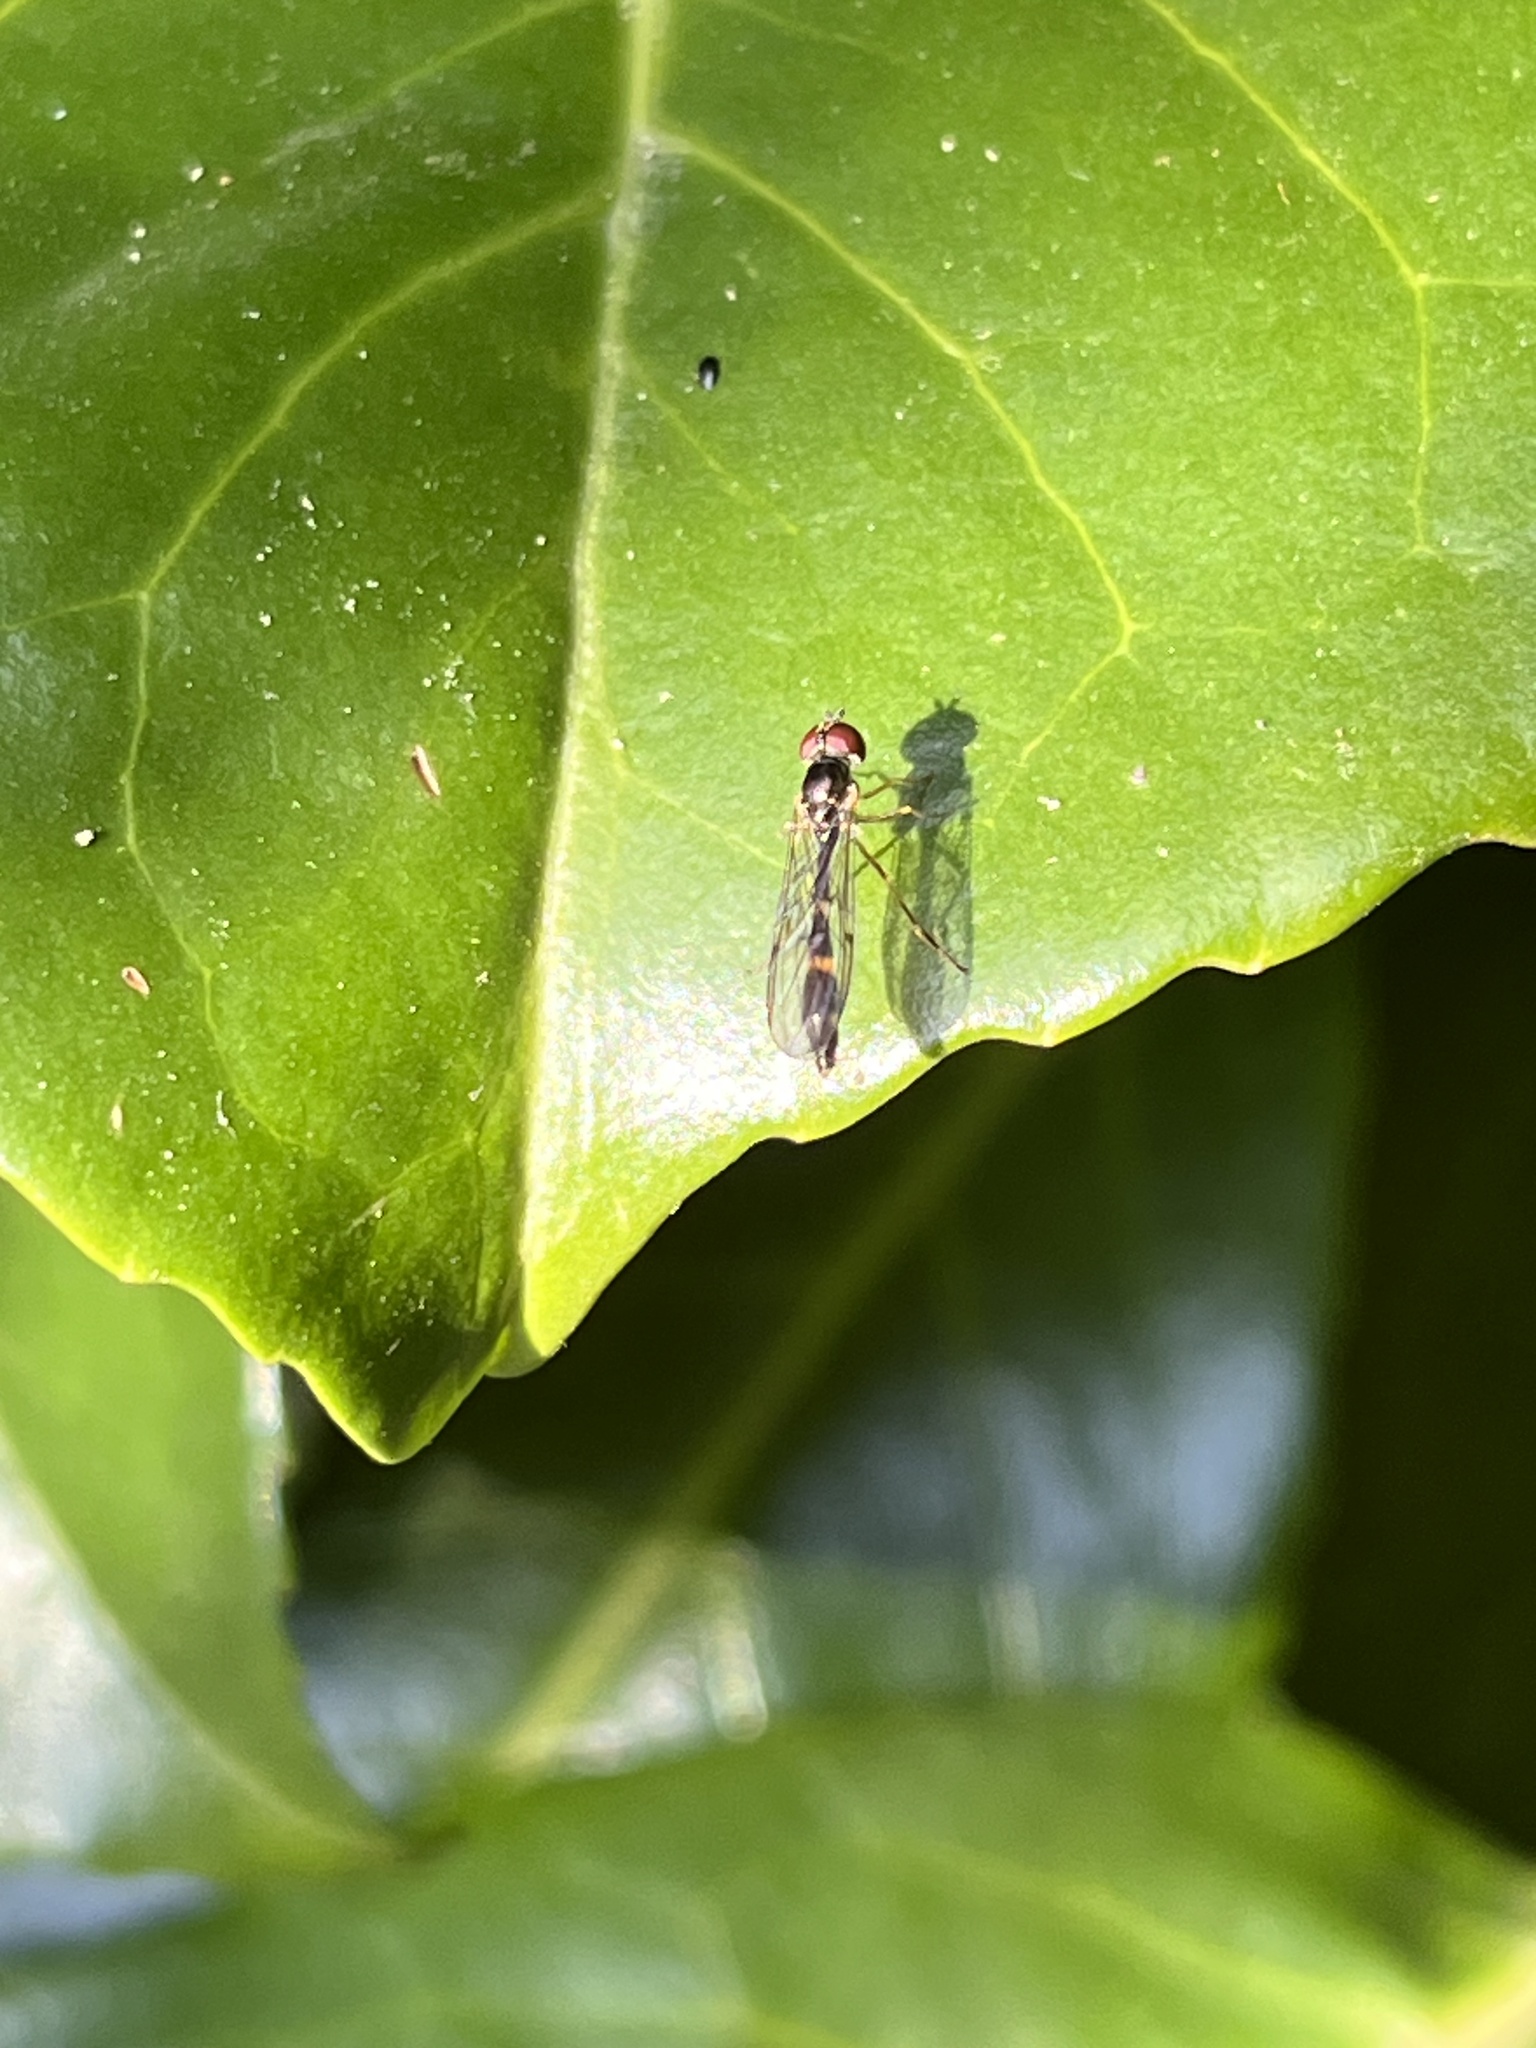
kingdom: Animalia
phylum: Arthropoda
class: Insecta
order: Diptera
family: Syrphidae
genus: Baccha
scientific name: Baccha elongata
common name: Common dainty
